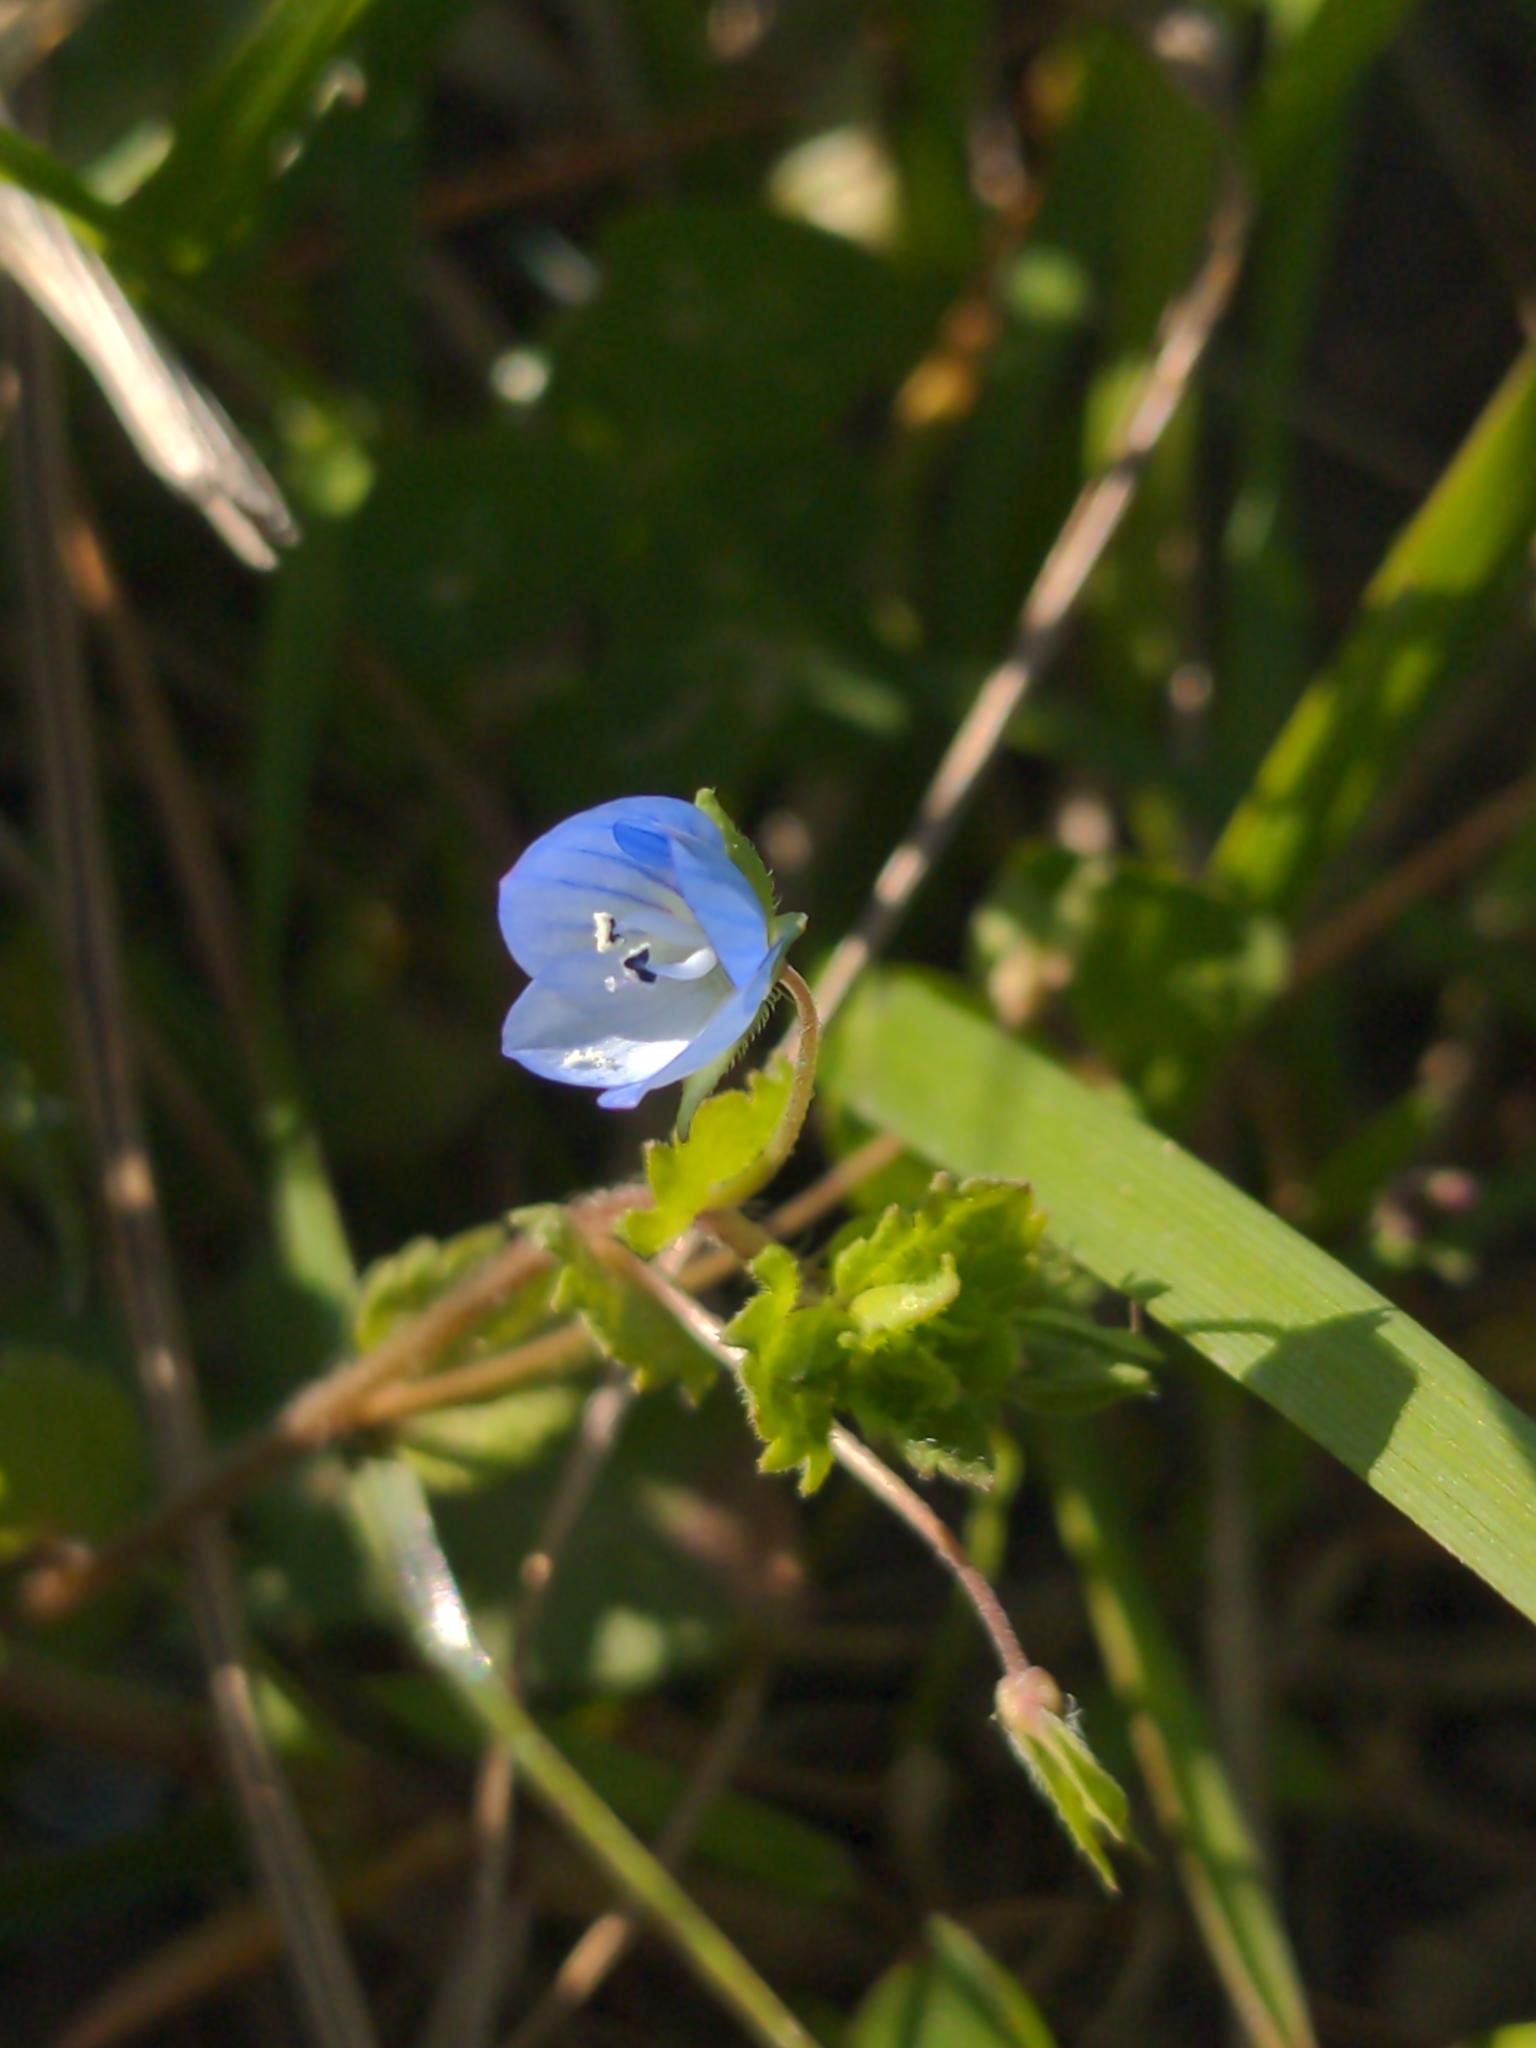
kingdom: Plantae
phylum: Tracheophyta
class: Magnoliopsida
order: Lamiales
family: Plantaginaceae
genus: Veronica
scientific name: Veronica persica
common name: Common field-speedwell
